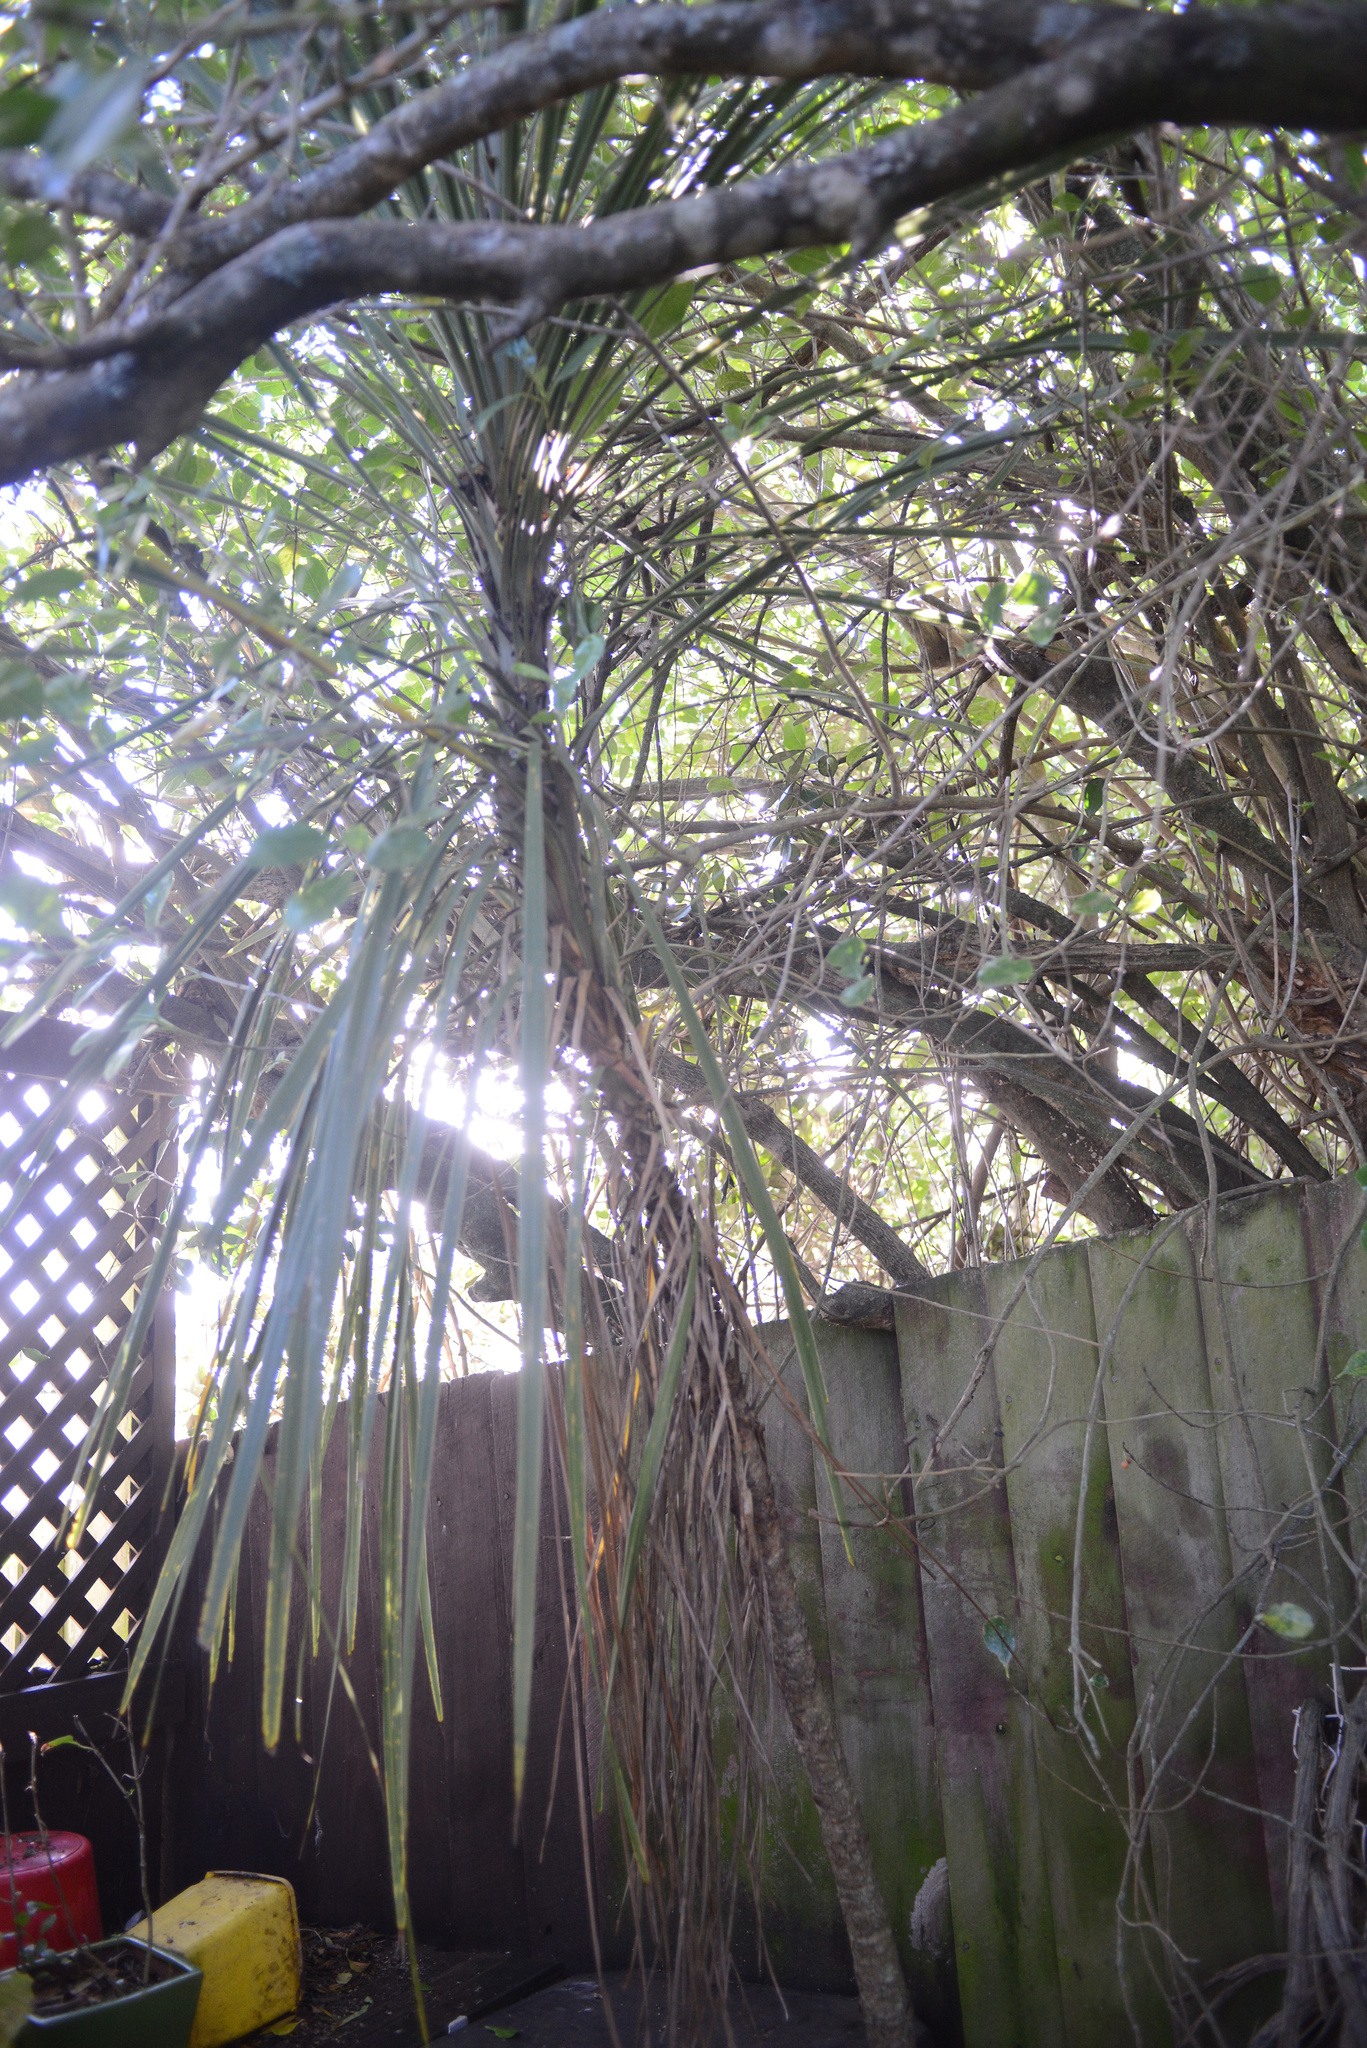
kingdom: Plantae
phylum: Tracheophyta
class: Liliopsida
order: Asparagales
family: Asparagaceae
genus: Cordyline
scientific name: Cordyline australis
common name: Cabbage-palm
